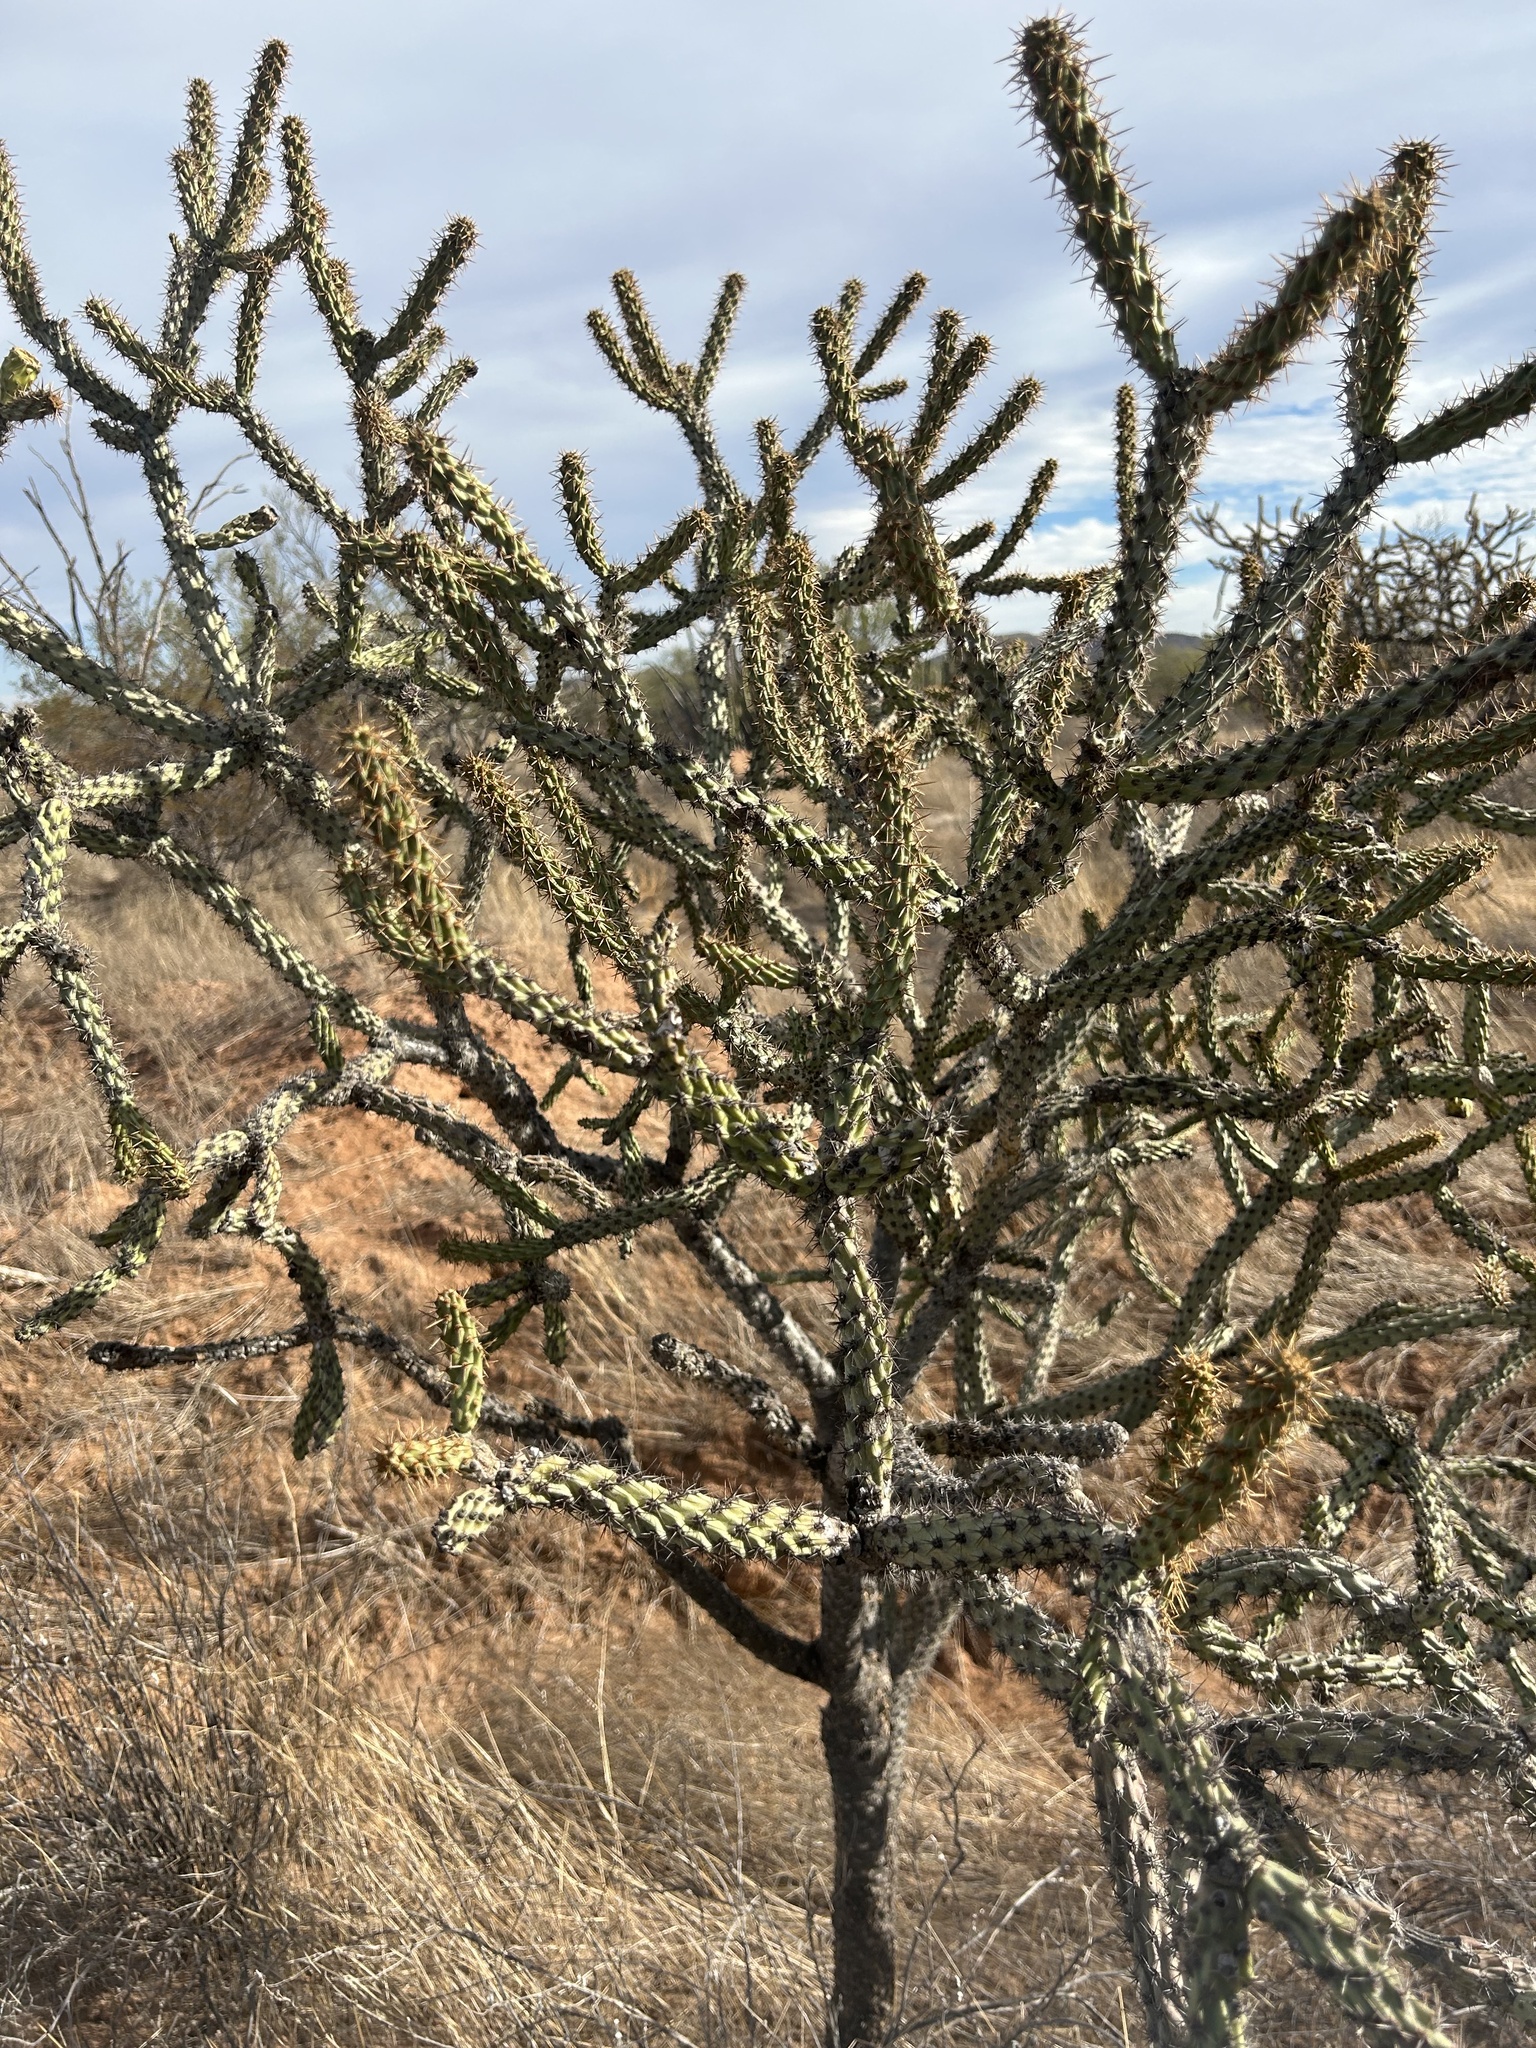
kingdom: Plantae
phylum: Tracheophyta
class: Magnoliopsida
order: Caryophyllales
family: Cactaceae
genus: Cylindropuntia
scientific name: Cylindropuntia thurberi
